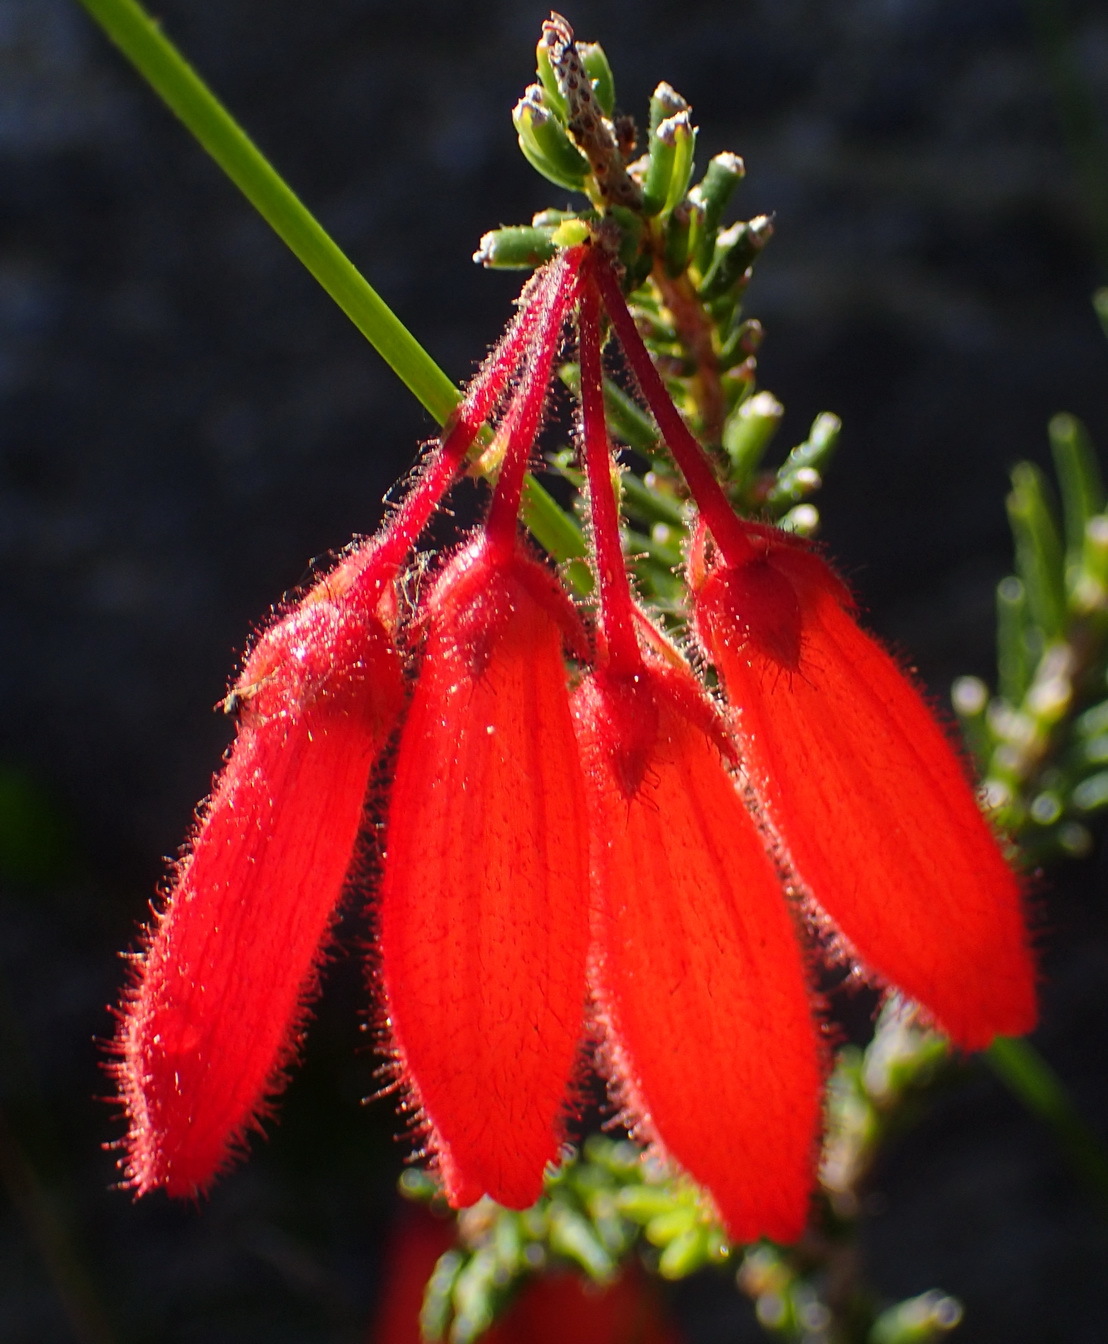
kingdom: Plantae
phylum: Tracheophyta
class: Magnoliopsida
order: Ericales
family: Ericaceae
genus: Erica
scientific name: Erica cerinthoides
